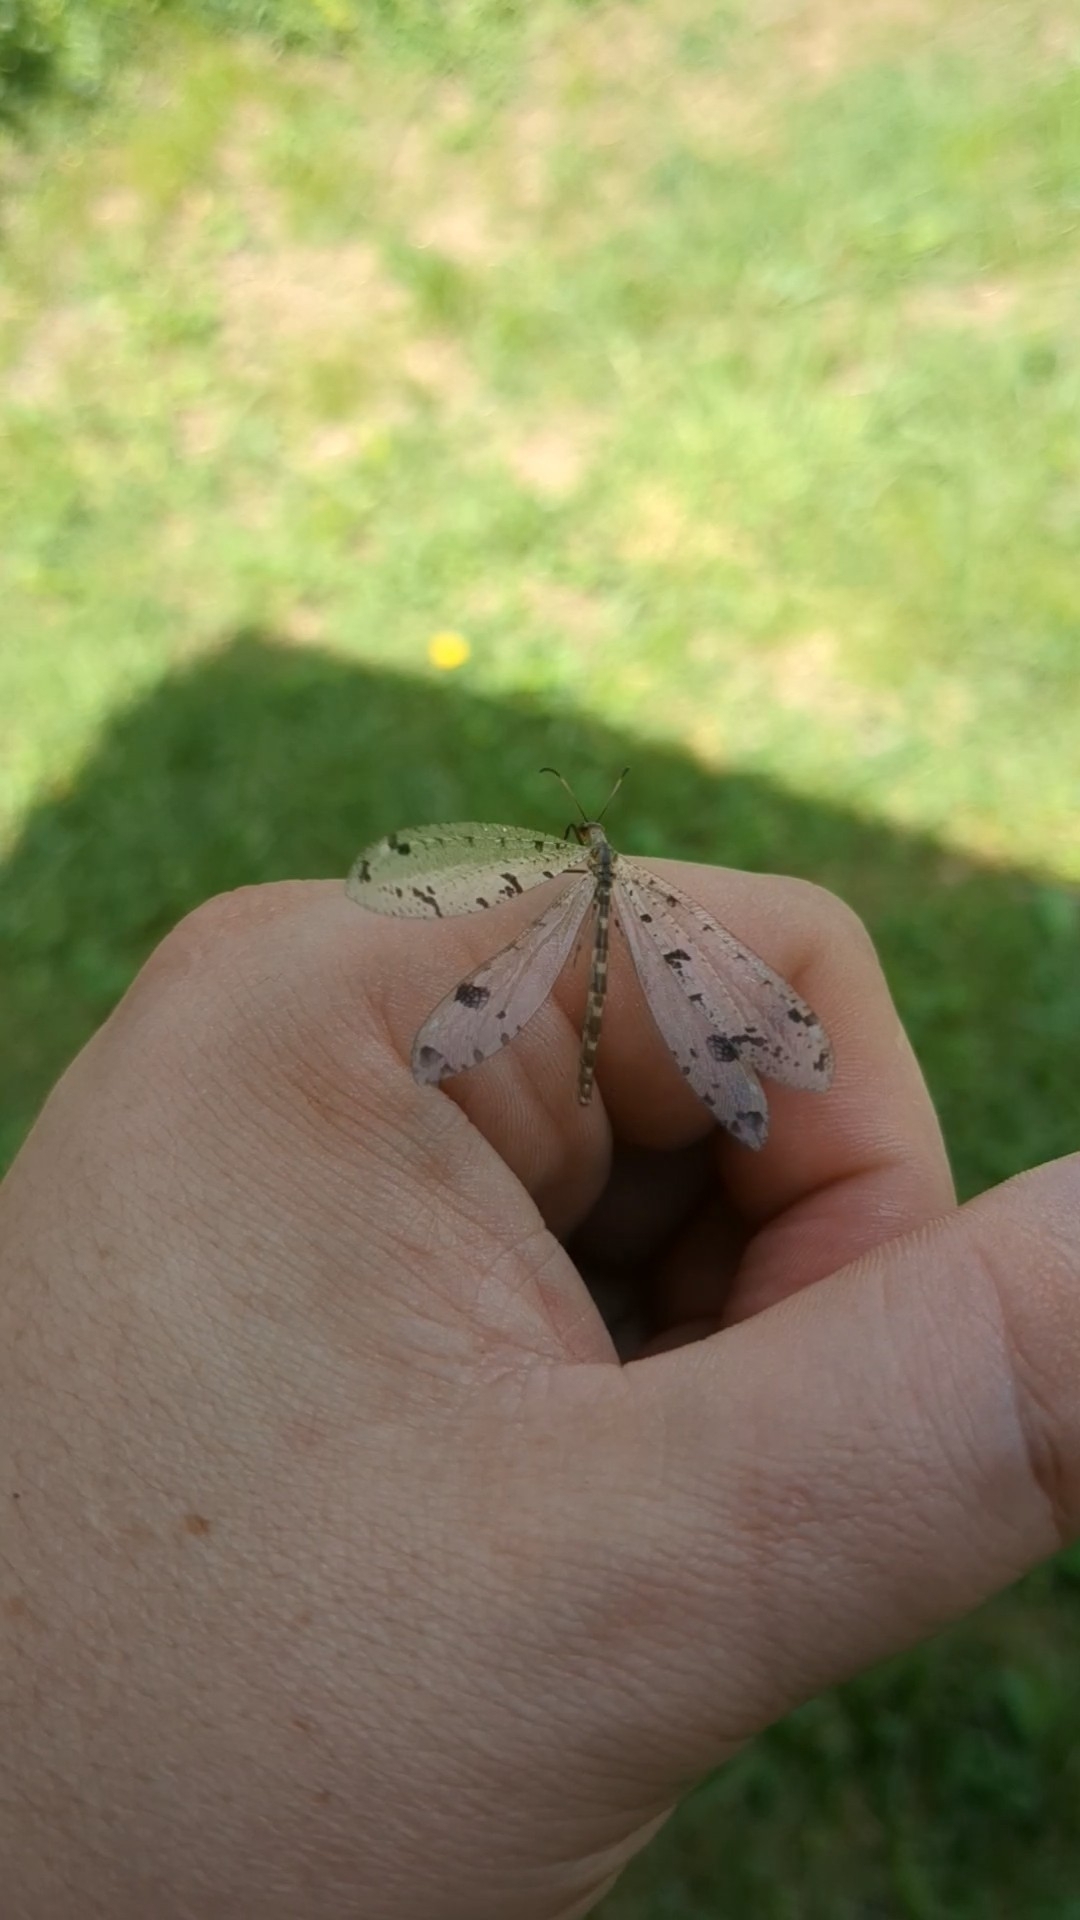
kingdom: Animalia
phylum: Arthropoda
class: Insecta
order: Neuroptera
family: Myrmeleontidae
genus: Dendroleon
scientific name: Dendroleon obsoletus
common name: Eastern spotted-winged antlion
